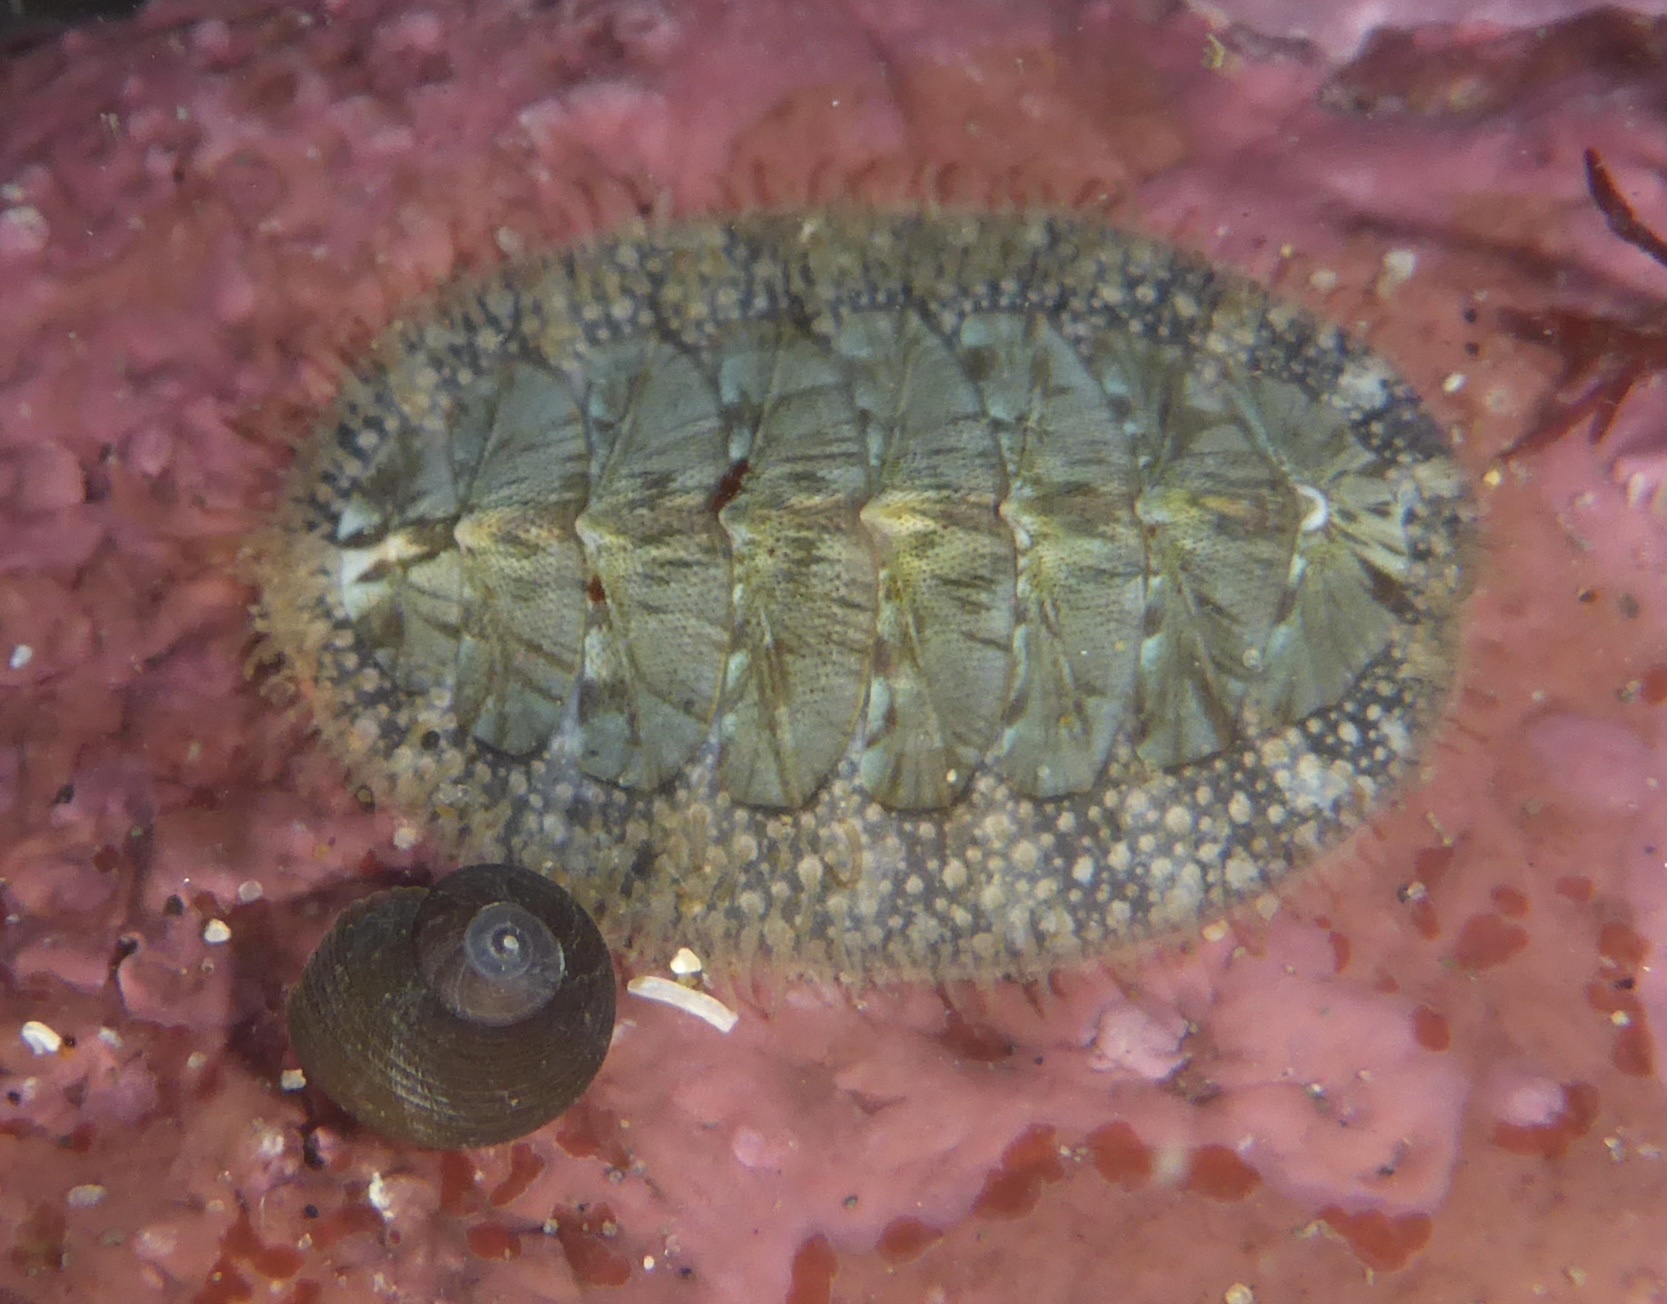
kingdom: Animalia
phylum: Mollusca
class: Polyplacophora
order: Chitonida
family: Mopaliidae
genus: Mopalia
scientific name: Mopalia lignosa
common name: Woody chiton
